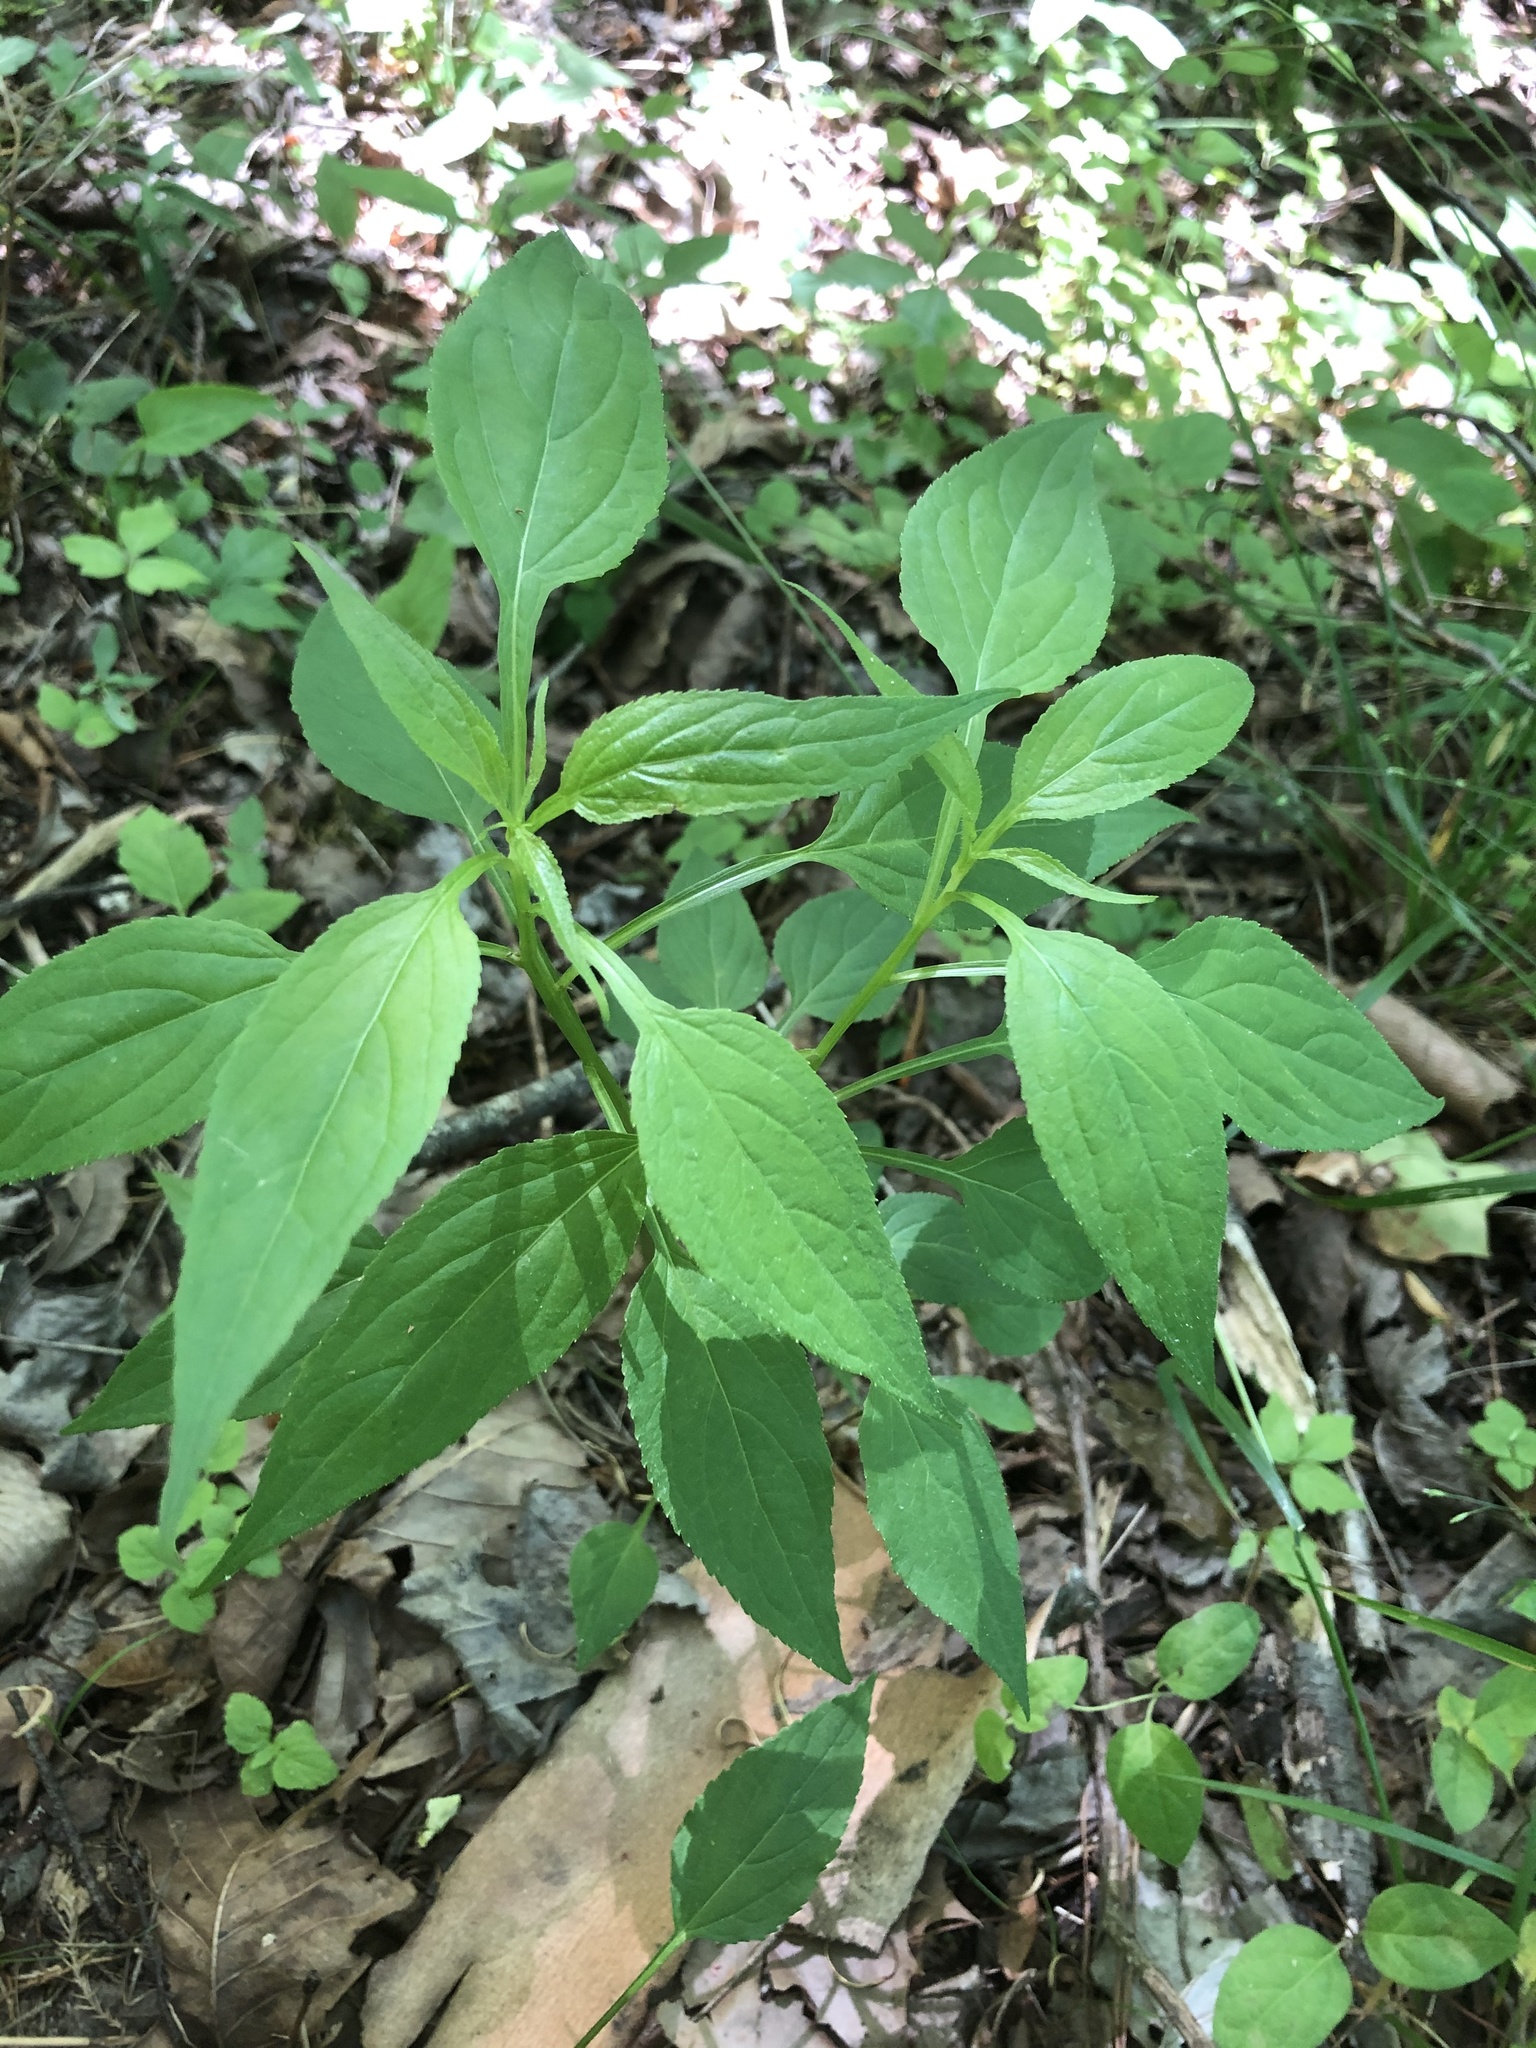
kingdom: Plantae
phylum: Tracheophyta
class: Magnoliopsida
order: Asterales
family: Campanulaceae
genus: Campanulastrum
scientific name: Campanulastrum americanum
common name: American bellflower
